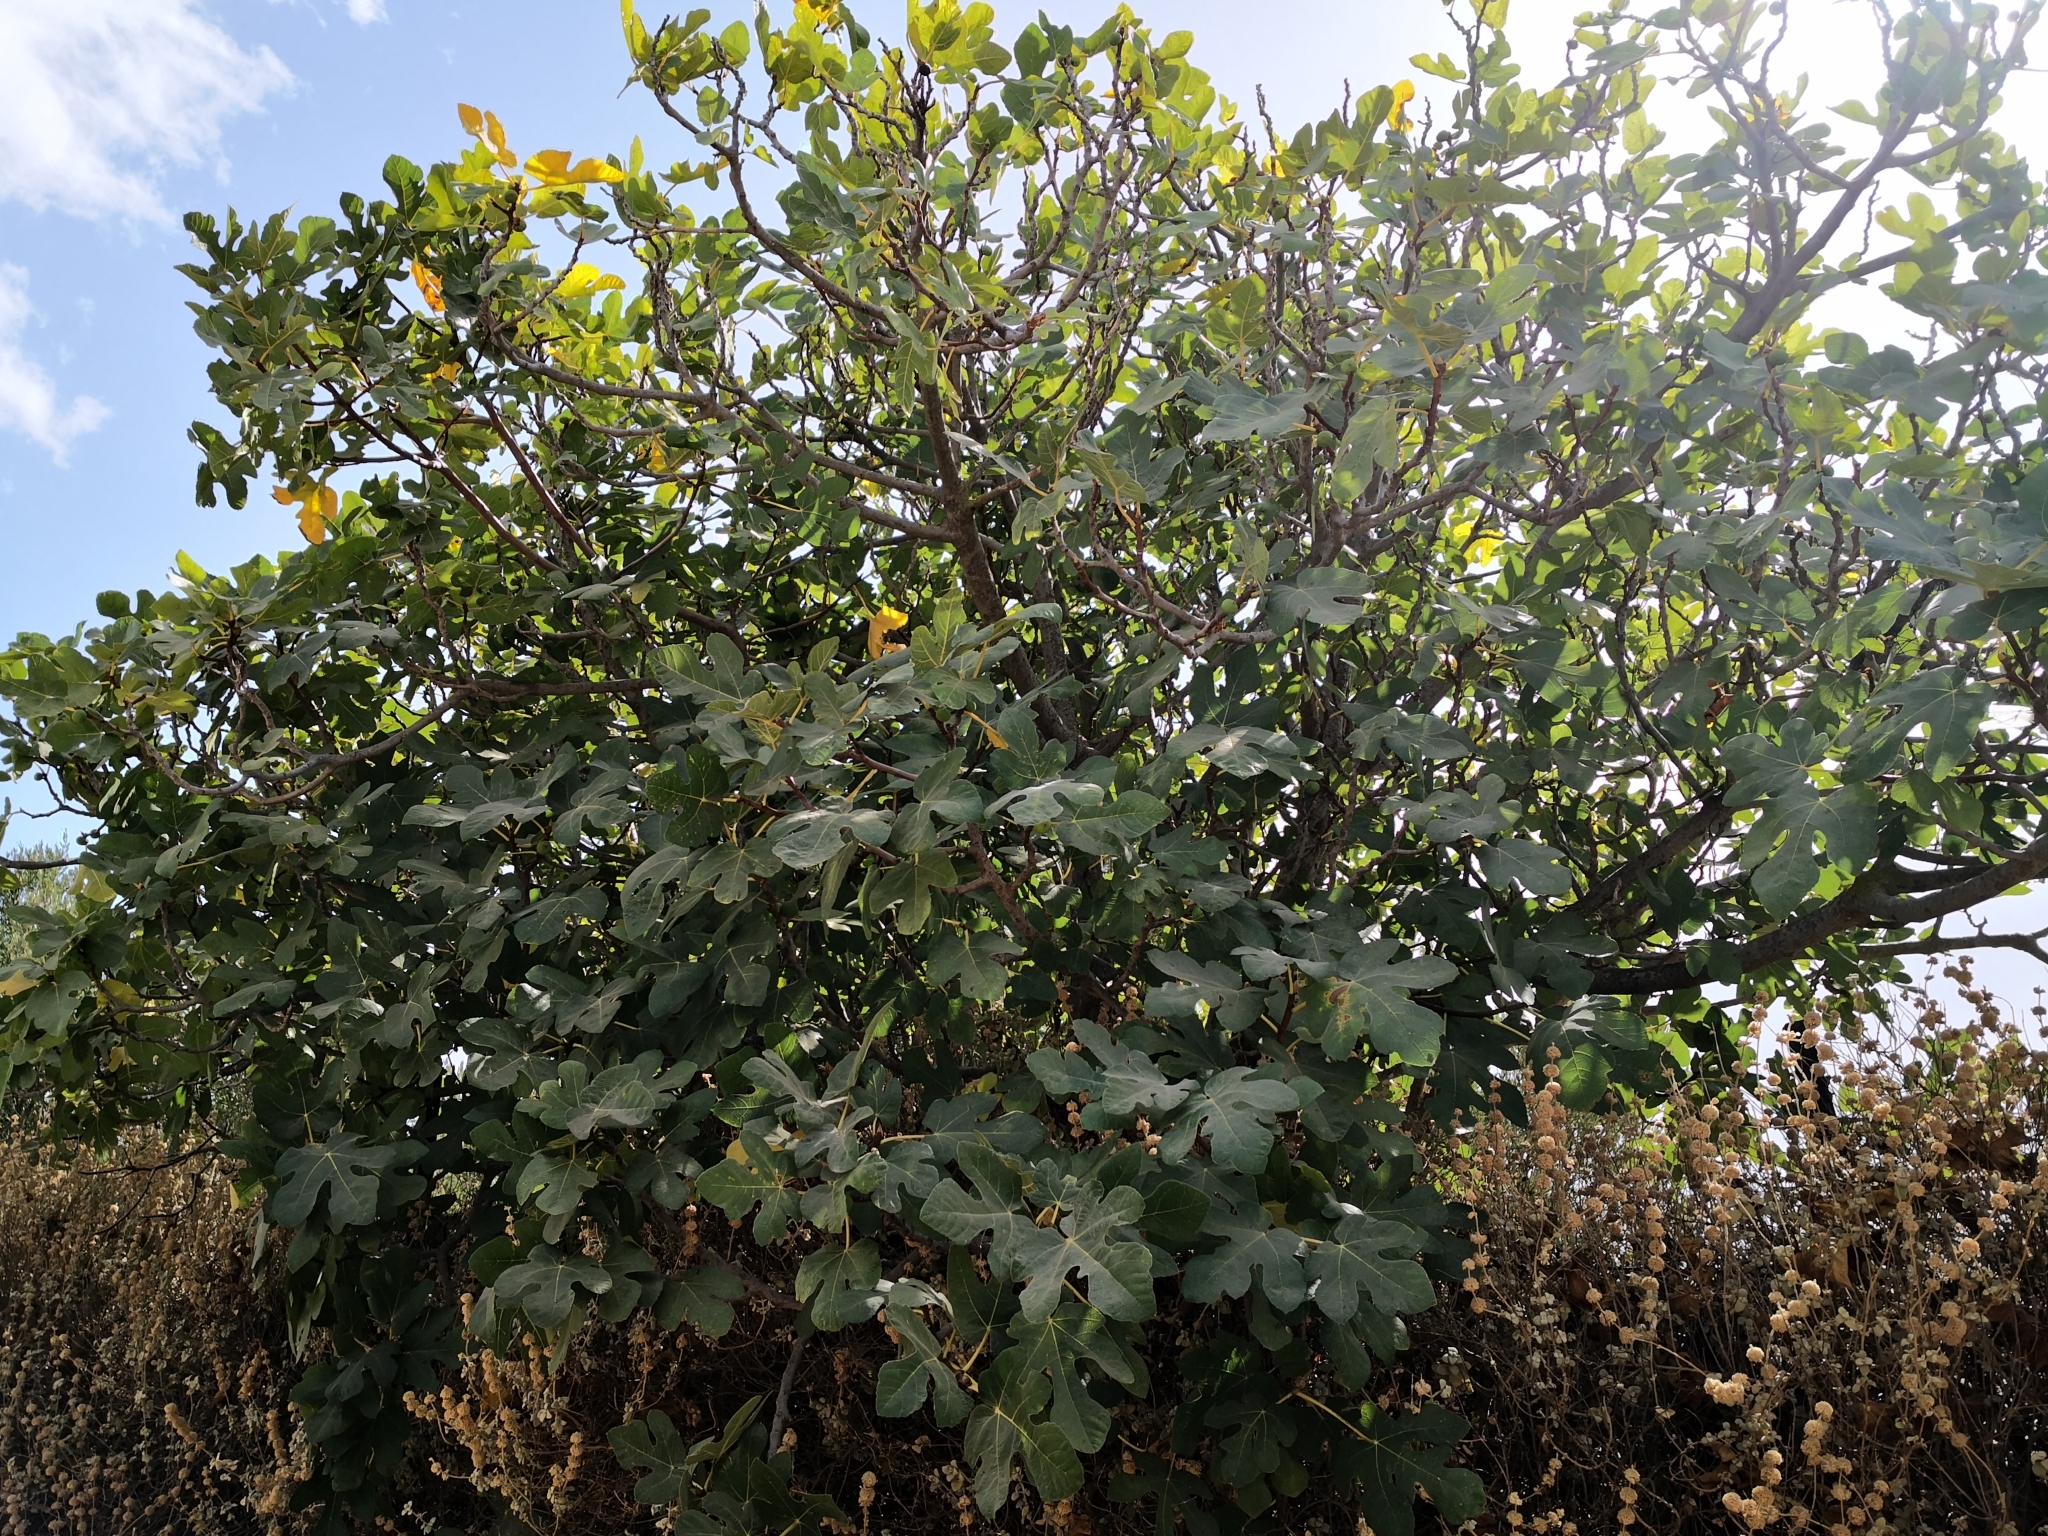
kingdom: Plantae
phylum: Tracheophyta
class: Magnoliopsida
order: Rosales
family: Moraceae
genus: Ficus
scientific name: Ficus carica
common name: Fig
